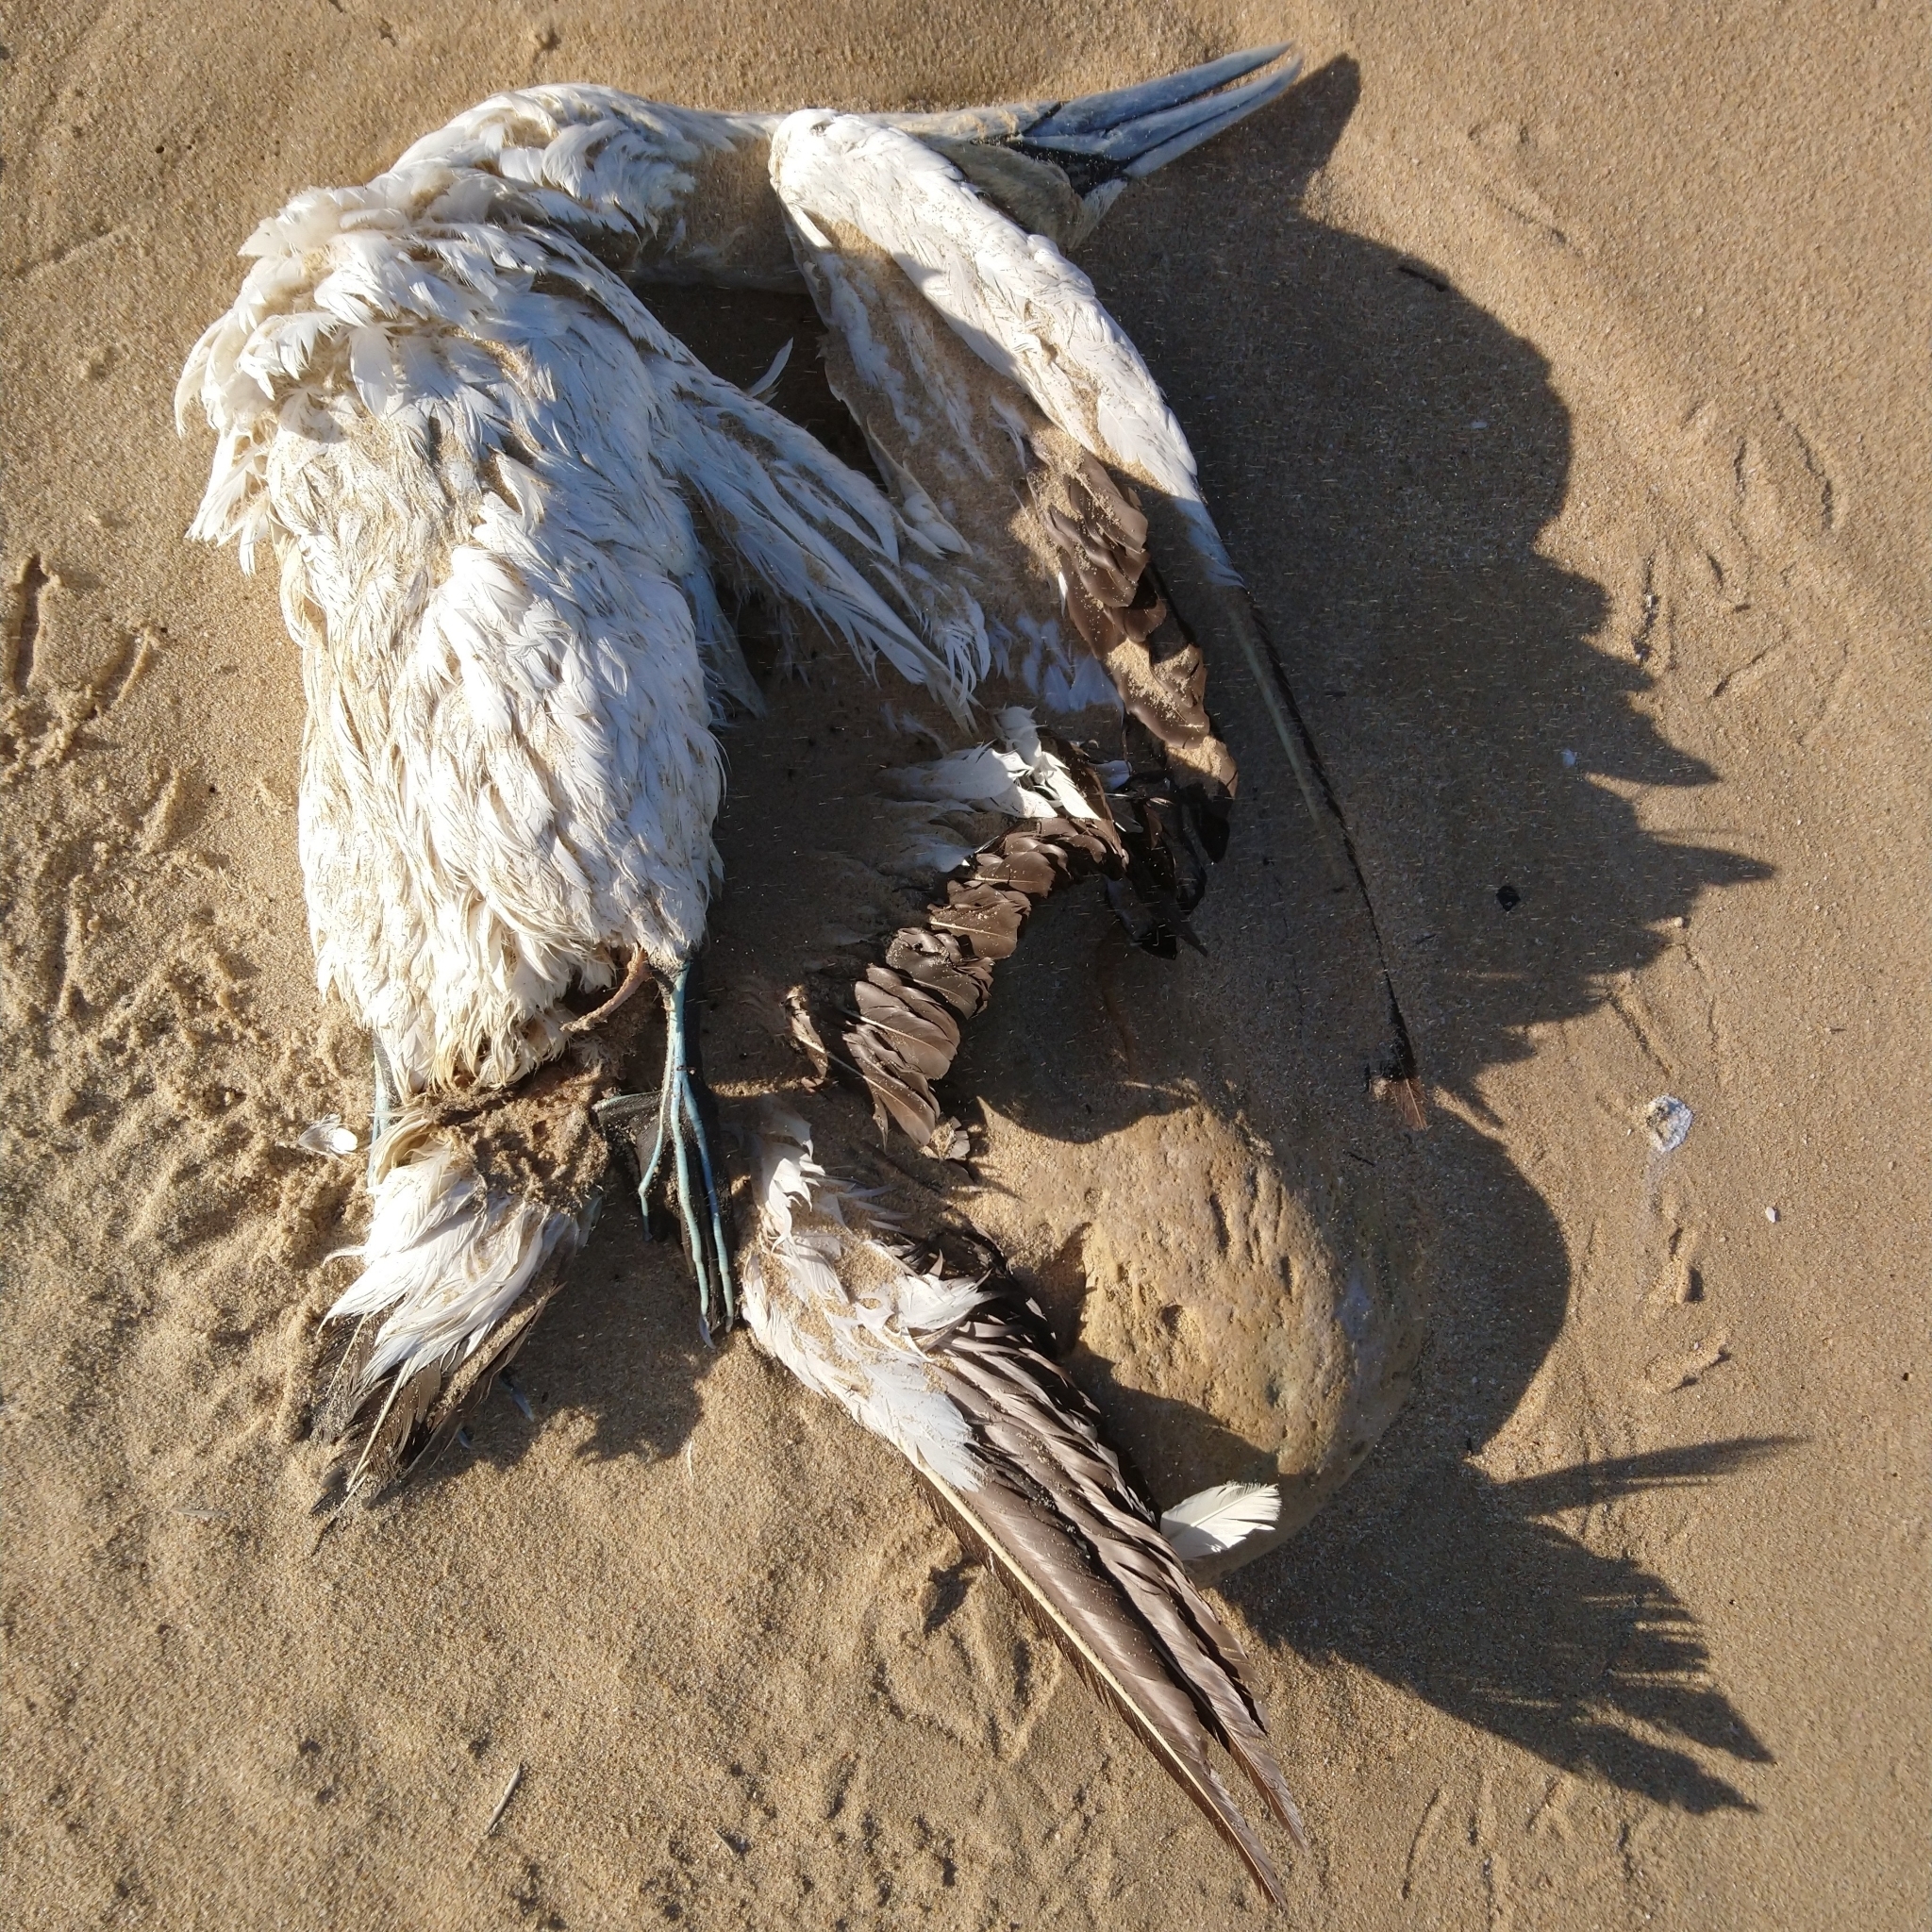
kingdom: Animalia
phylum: Chordata
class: Aves
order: Suliformes
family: Sulidae
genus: Morus
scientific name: Morus capensis
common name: Cape gannet
